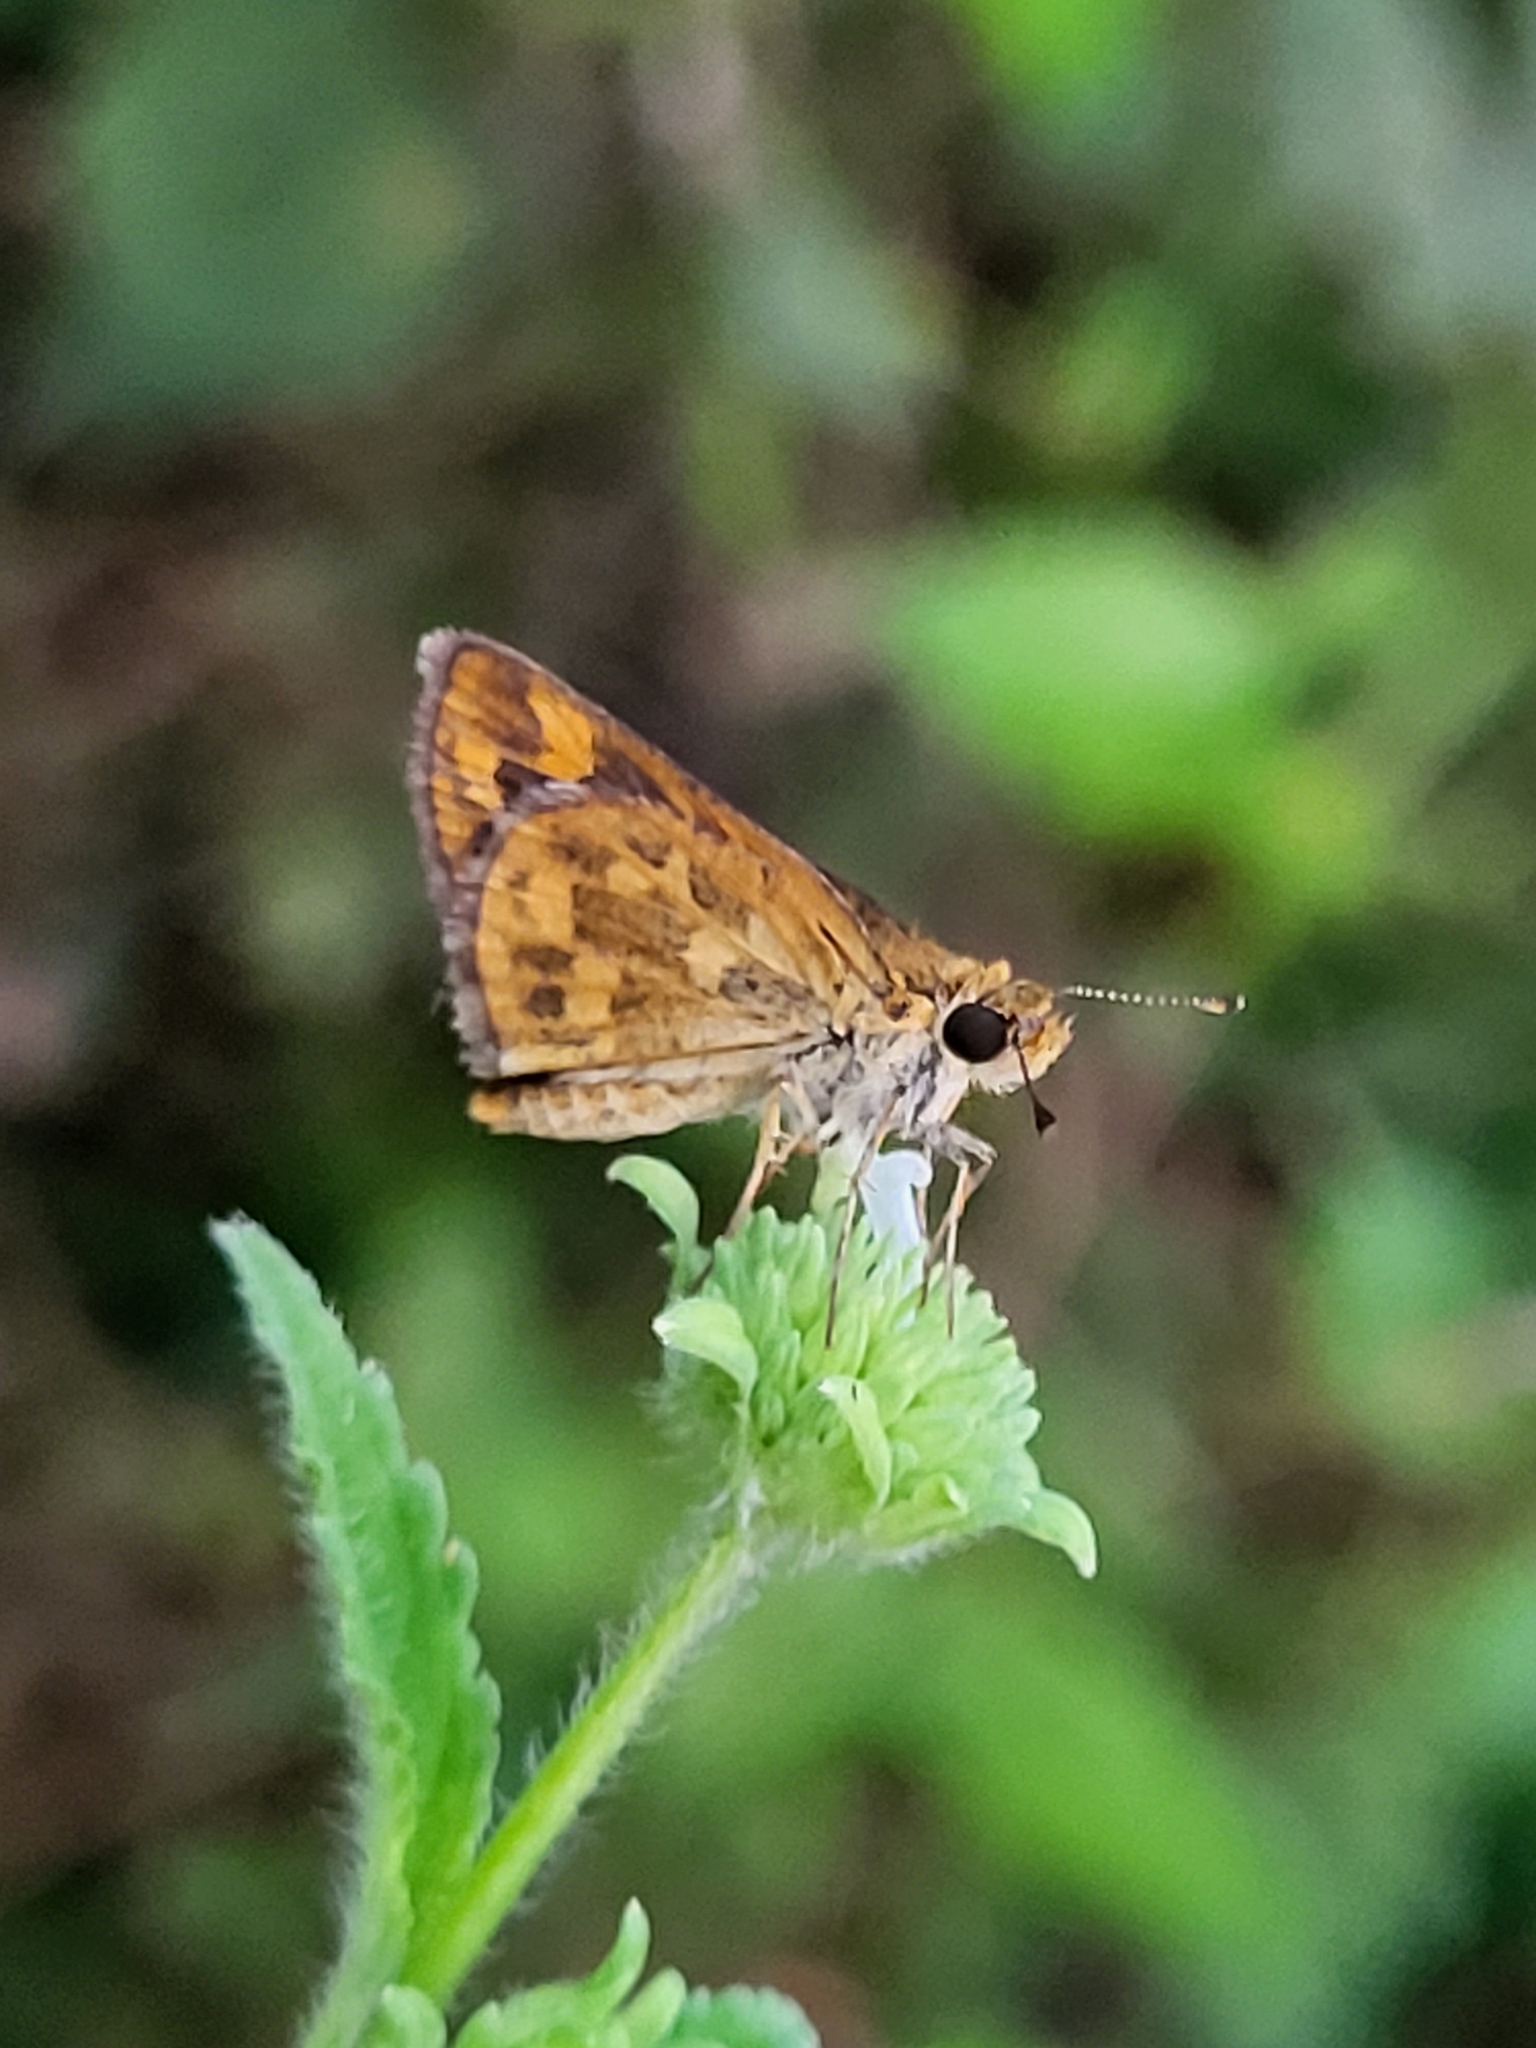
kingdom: Animalia
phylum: Arthropoda
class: Insecta
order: Lepidoptera
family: Hesperiidae
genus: Taractrocera
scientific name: Taractrocera ceramas
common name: Tamil grass dart
